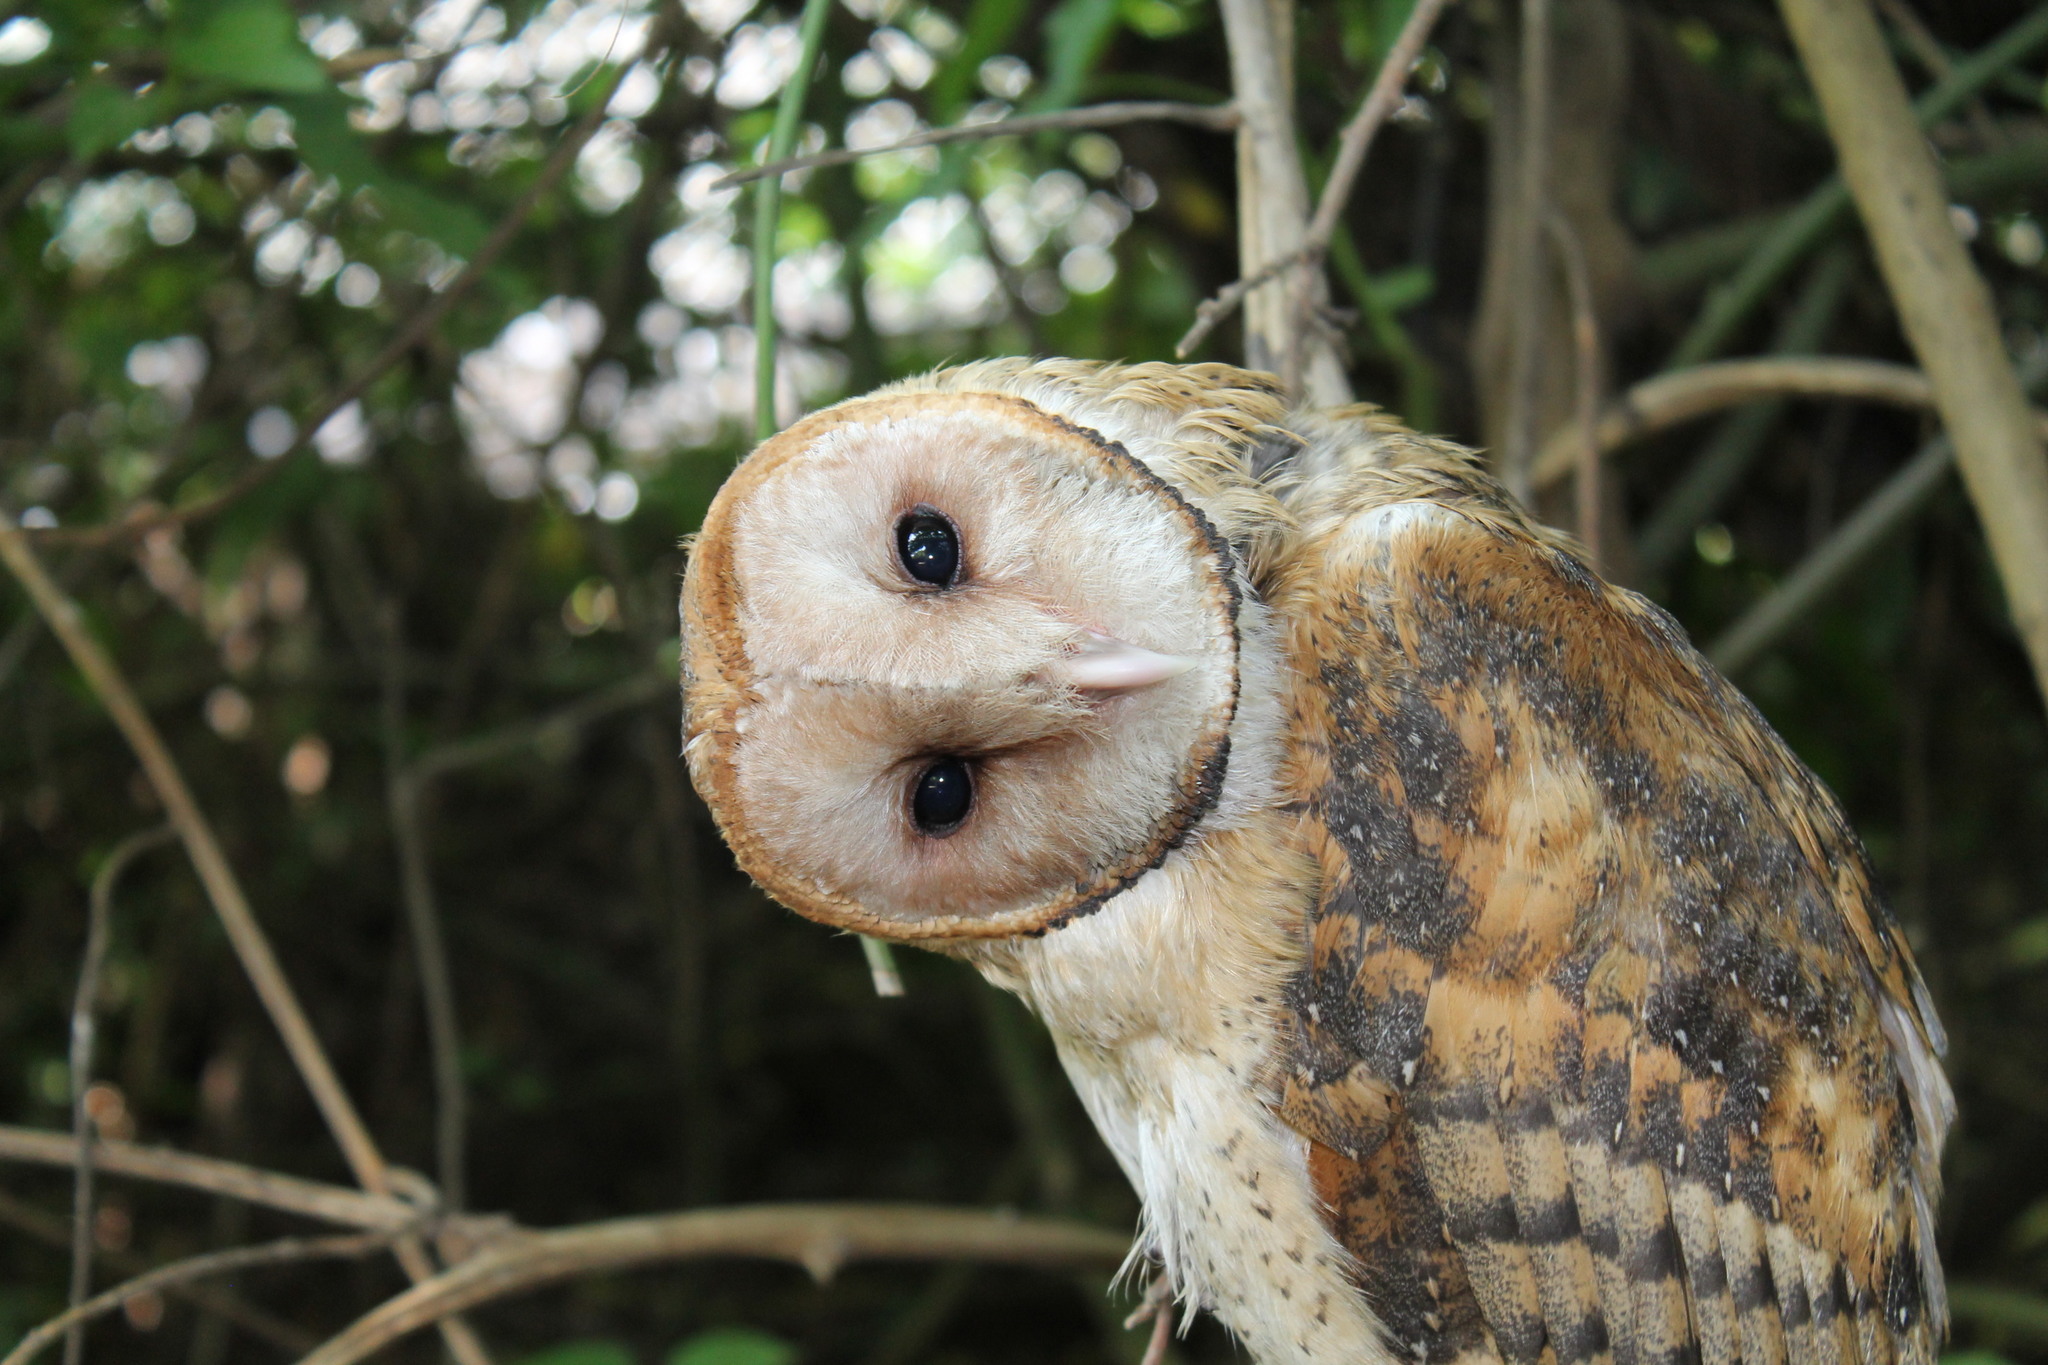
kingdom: Animalia
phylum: Chordata
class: Aves
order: Strigiformes
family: Tytonidae
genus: Tyto
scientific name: Tyto alba
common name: Barn owl
